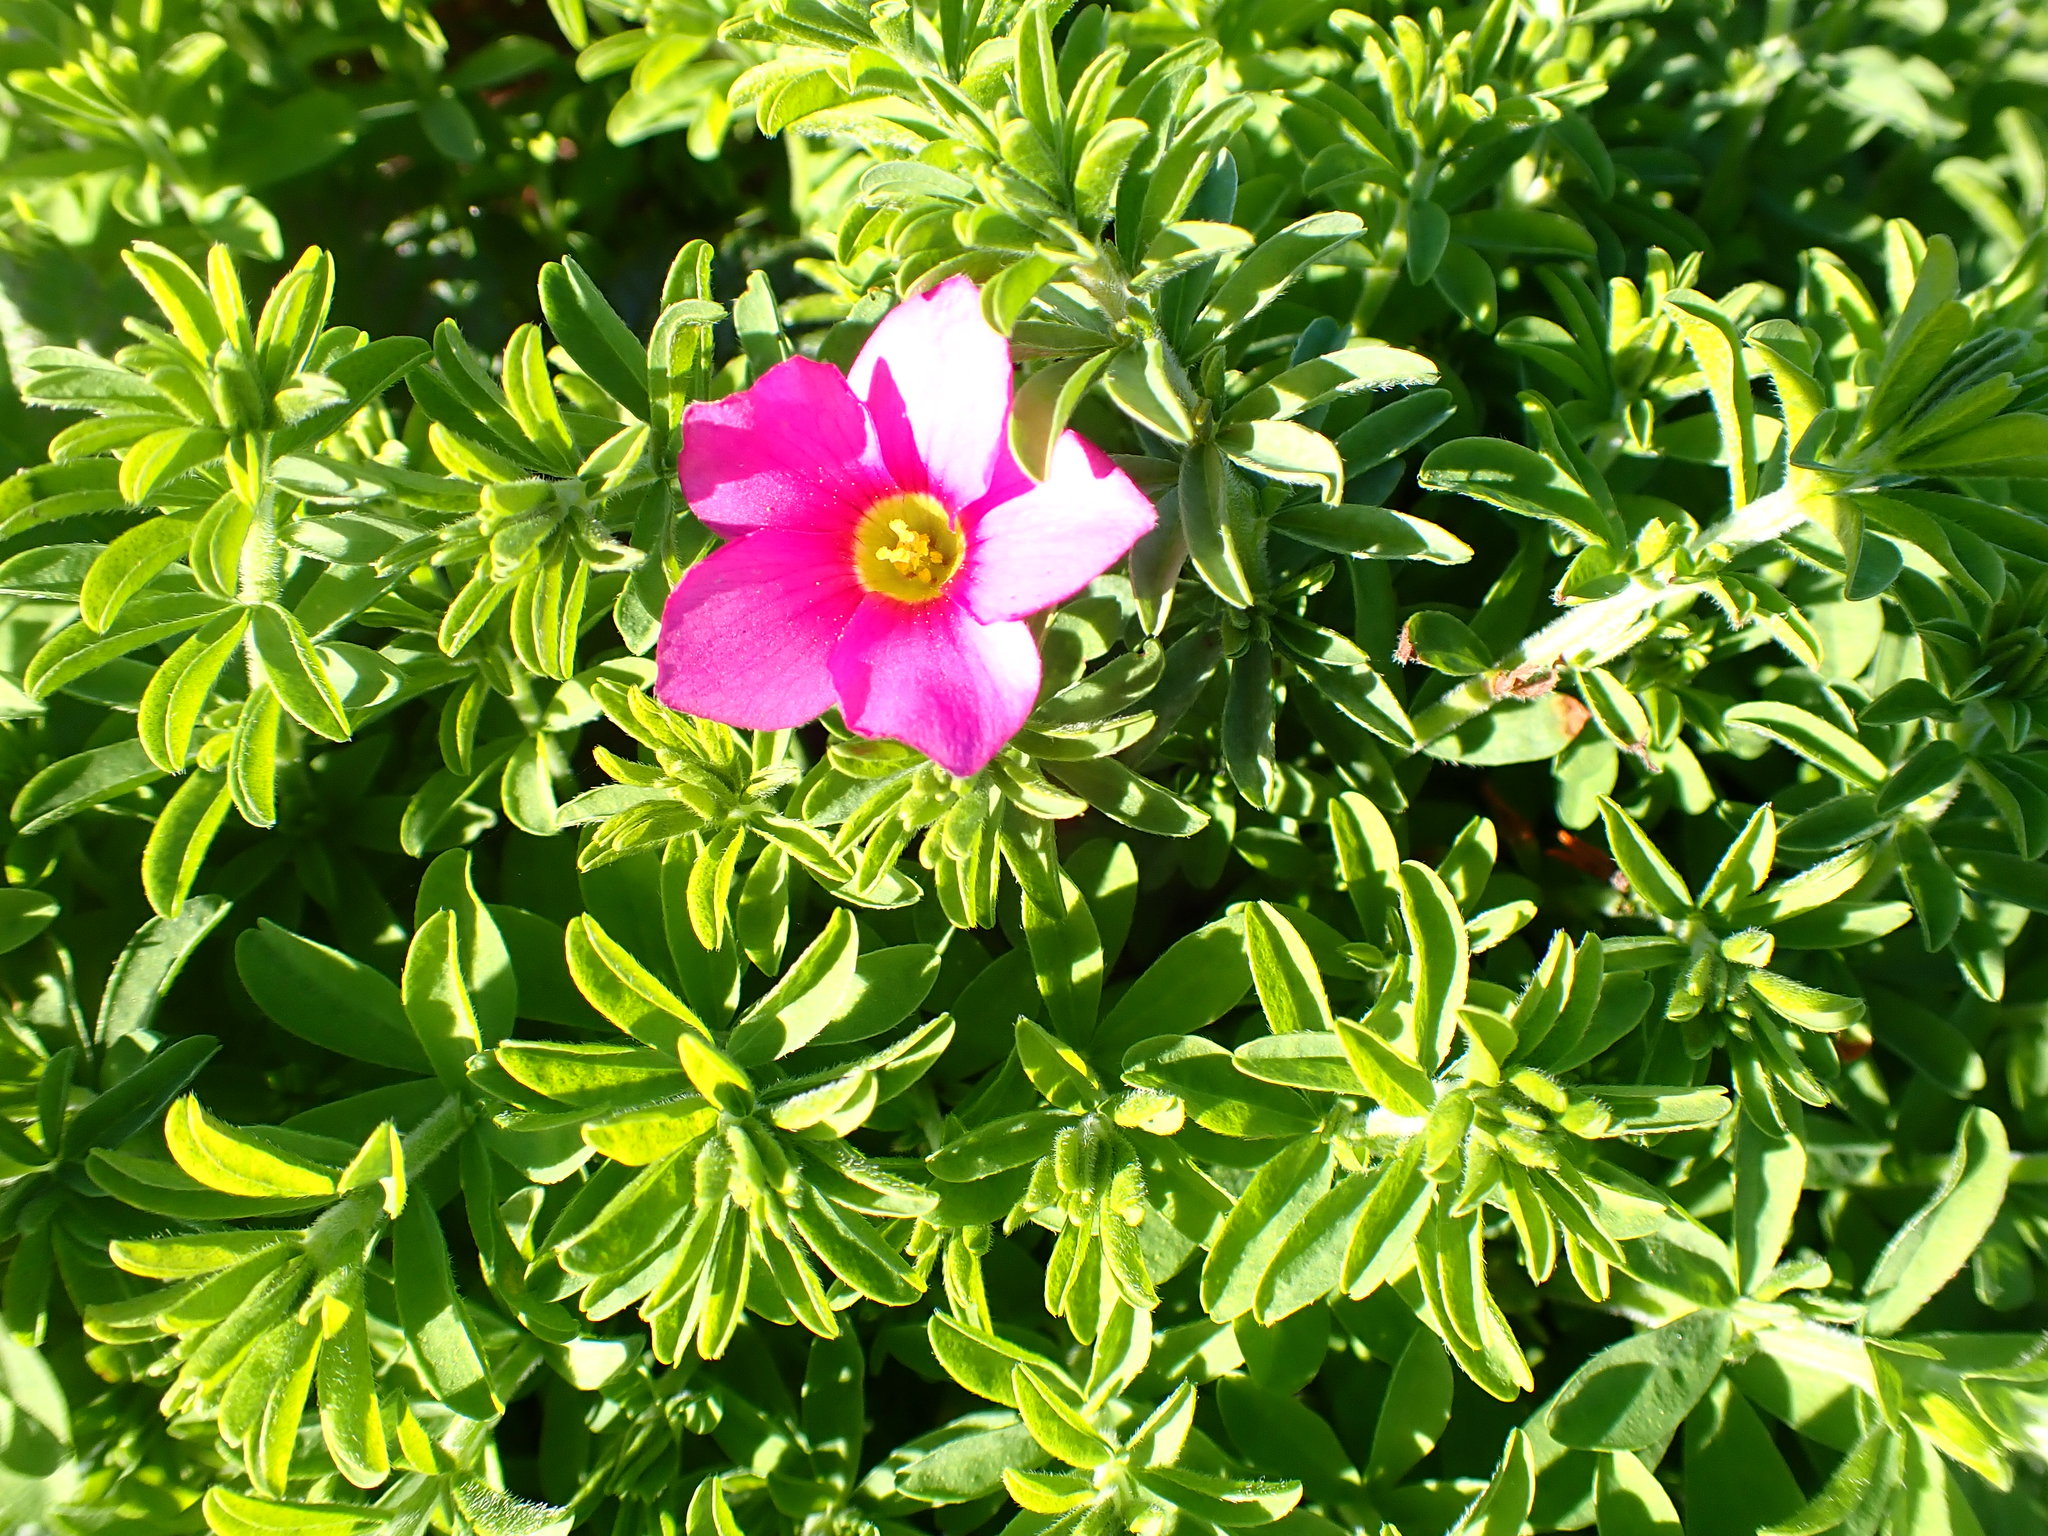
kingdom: Plantae
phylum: Tracheophyta
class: Magnoliopsida
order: Oxalidales
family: Oxalidaceae
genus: Oxalis
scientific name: Oxalis hirta
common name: Tropical woodsorrel
